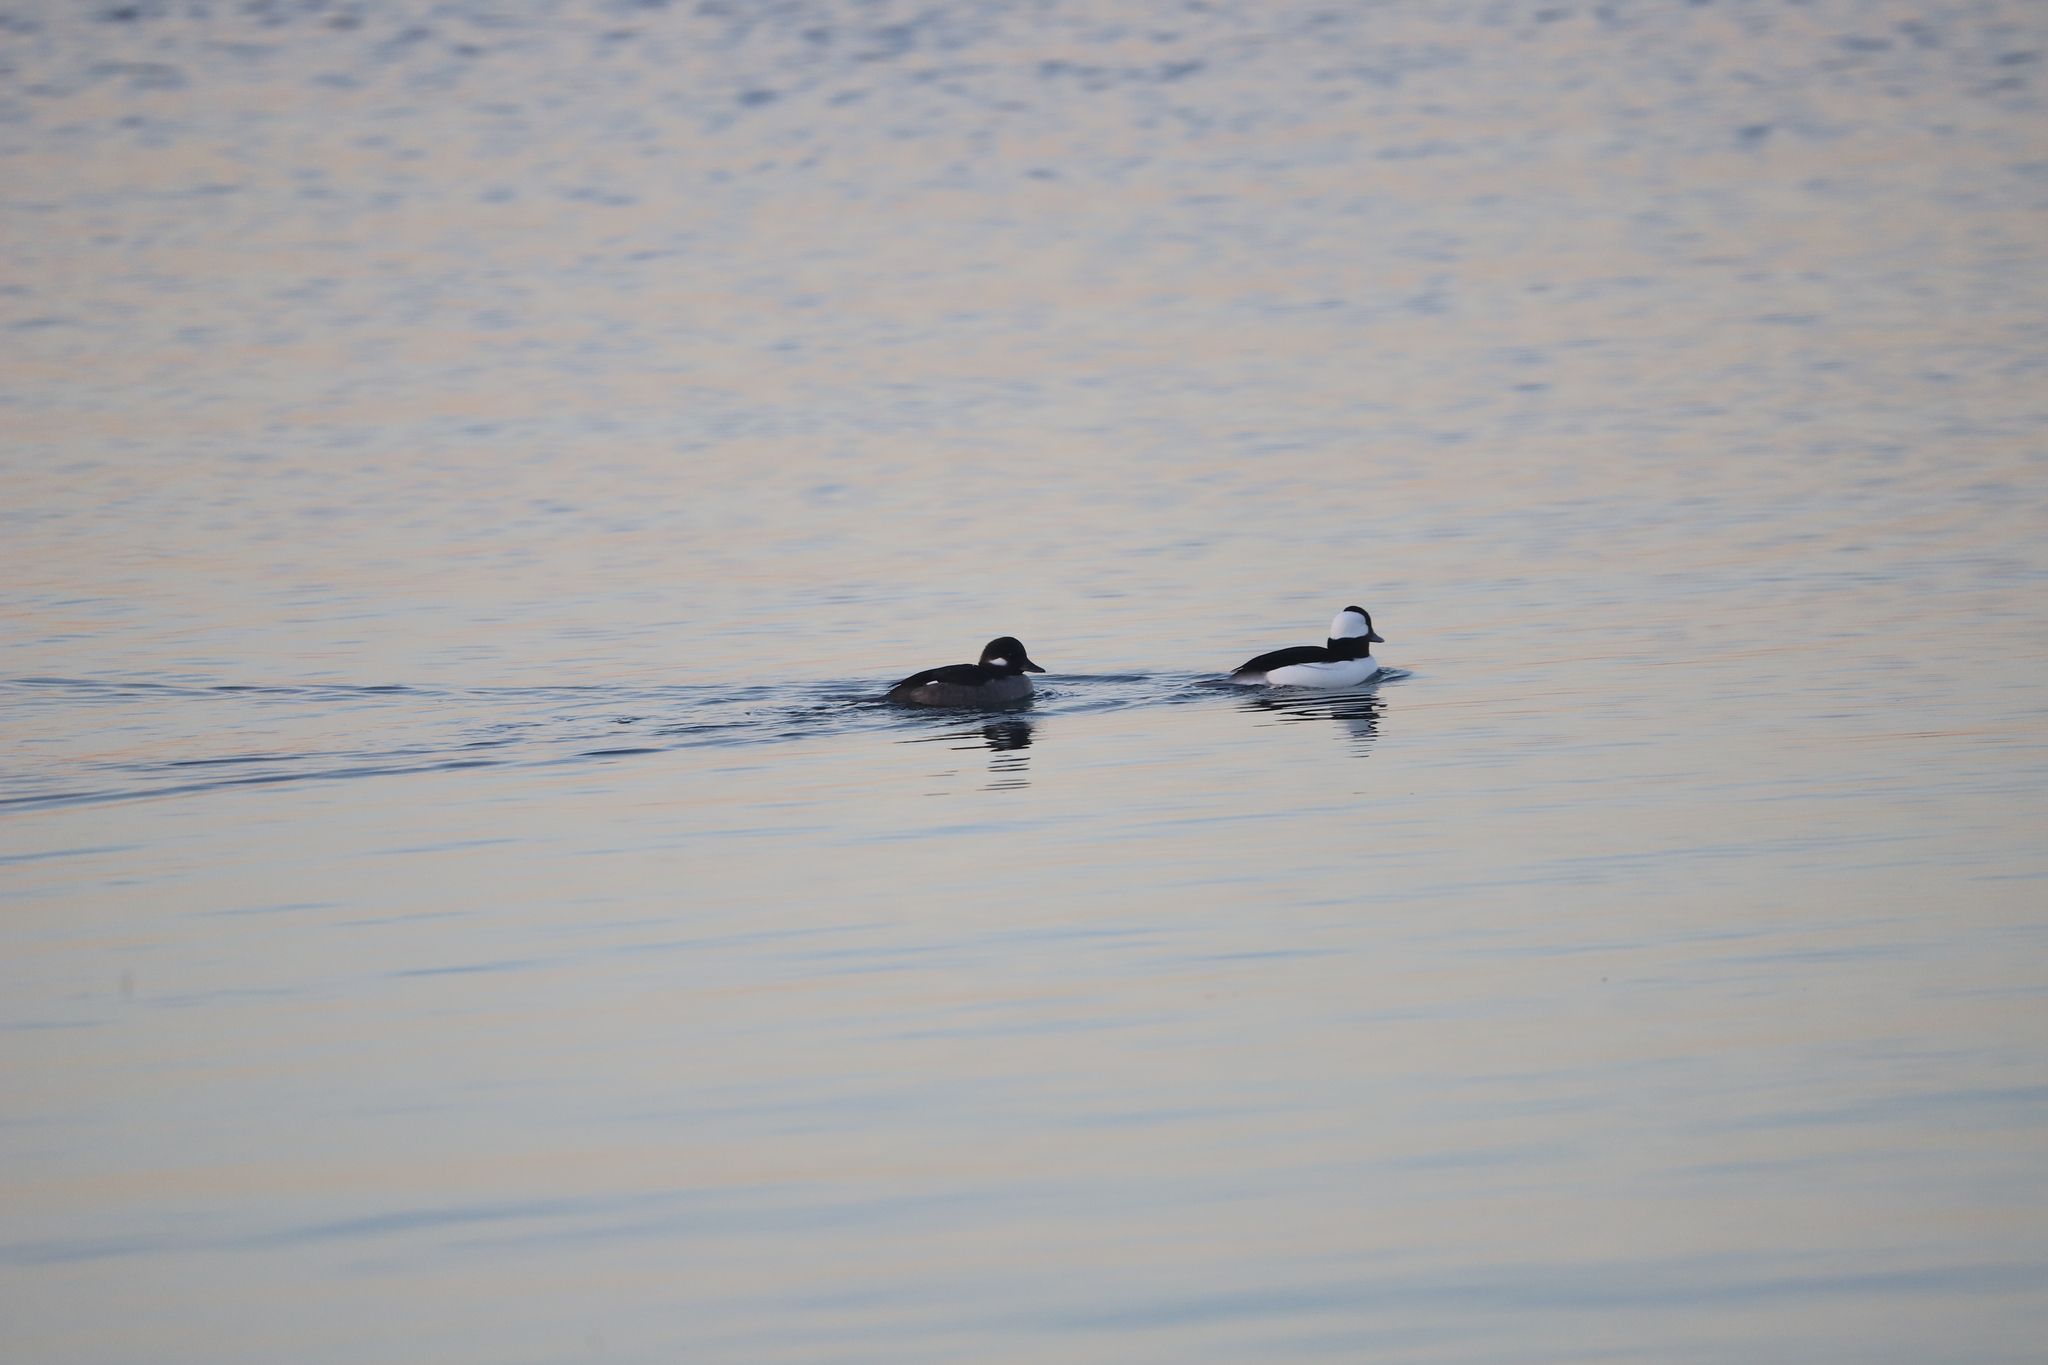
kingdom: Animalia
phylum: Chordata
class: Aves
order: Anseriformes
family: Anatidae
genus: Bucephala
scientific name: Bucephala albeola
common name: Bufflehead
